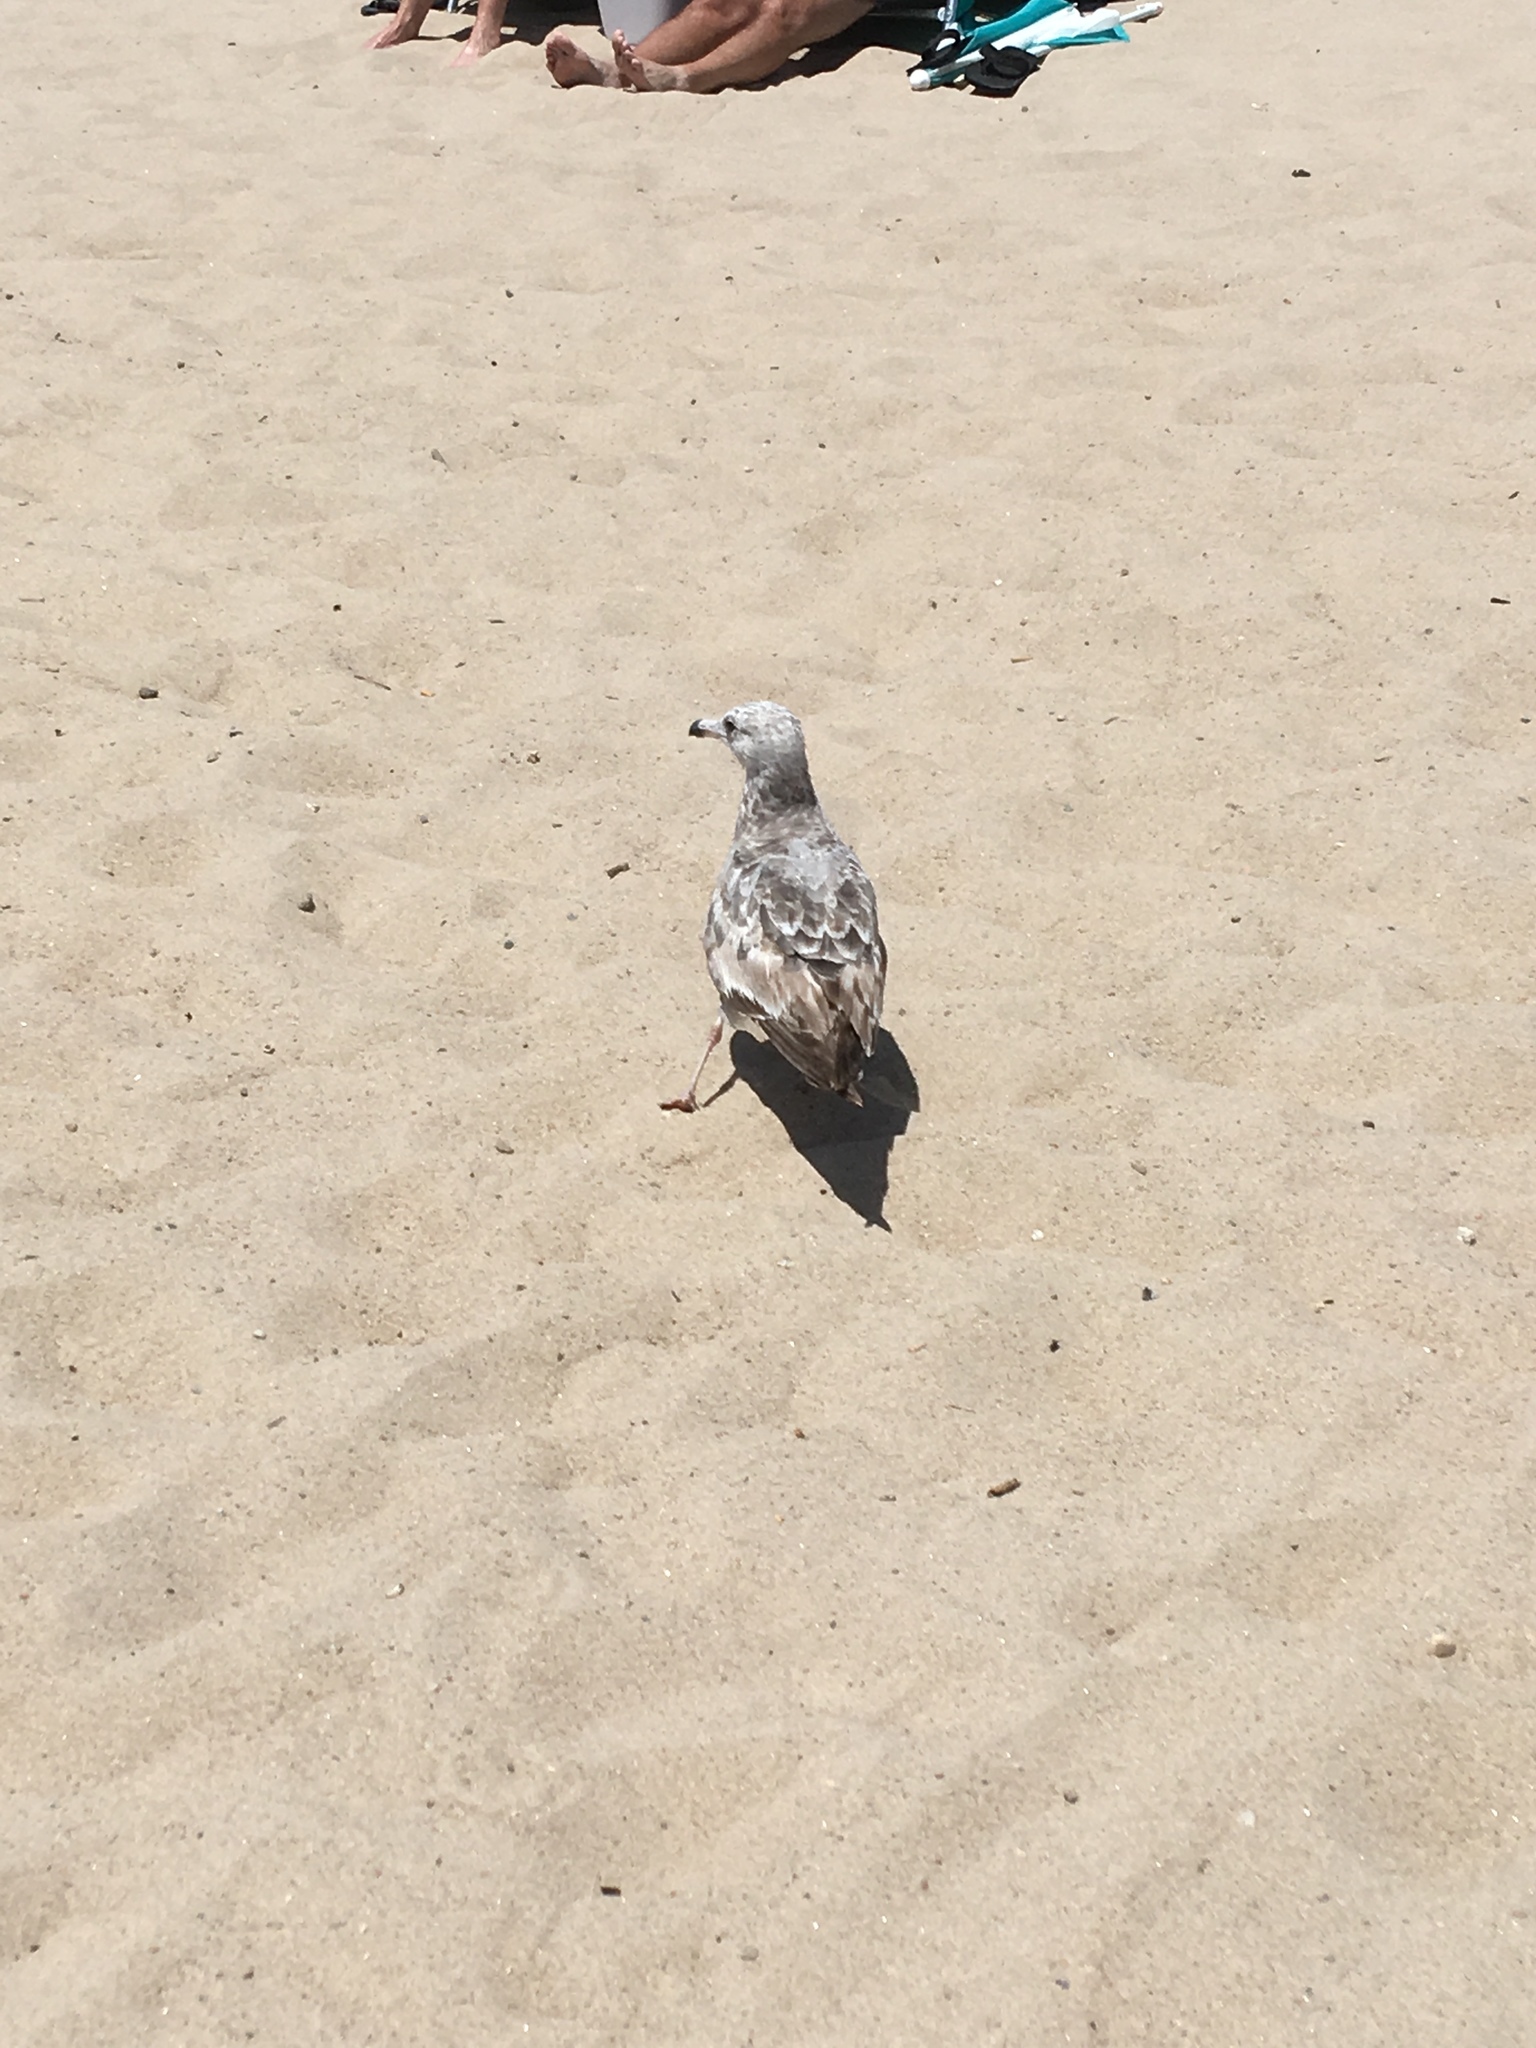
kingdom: Animalia
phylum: Chordata
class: Aves
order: Charadriiformes
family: Laridae
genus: Larus
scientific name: Larus argentatus
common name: Herring gull
